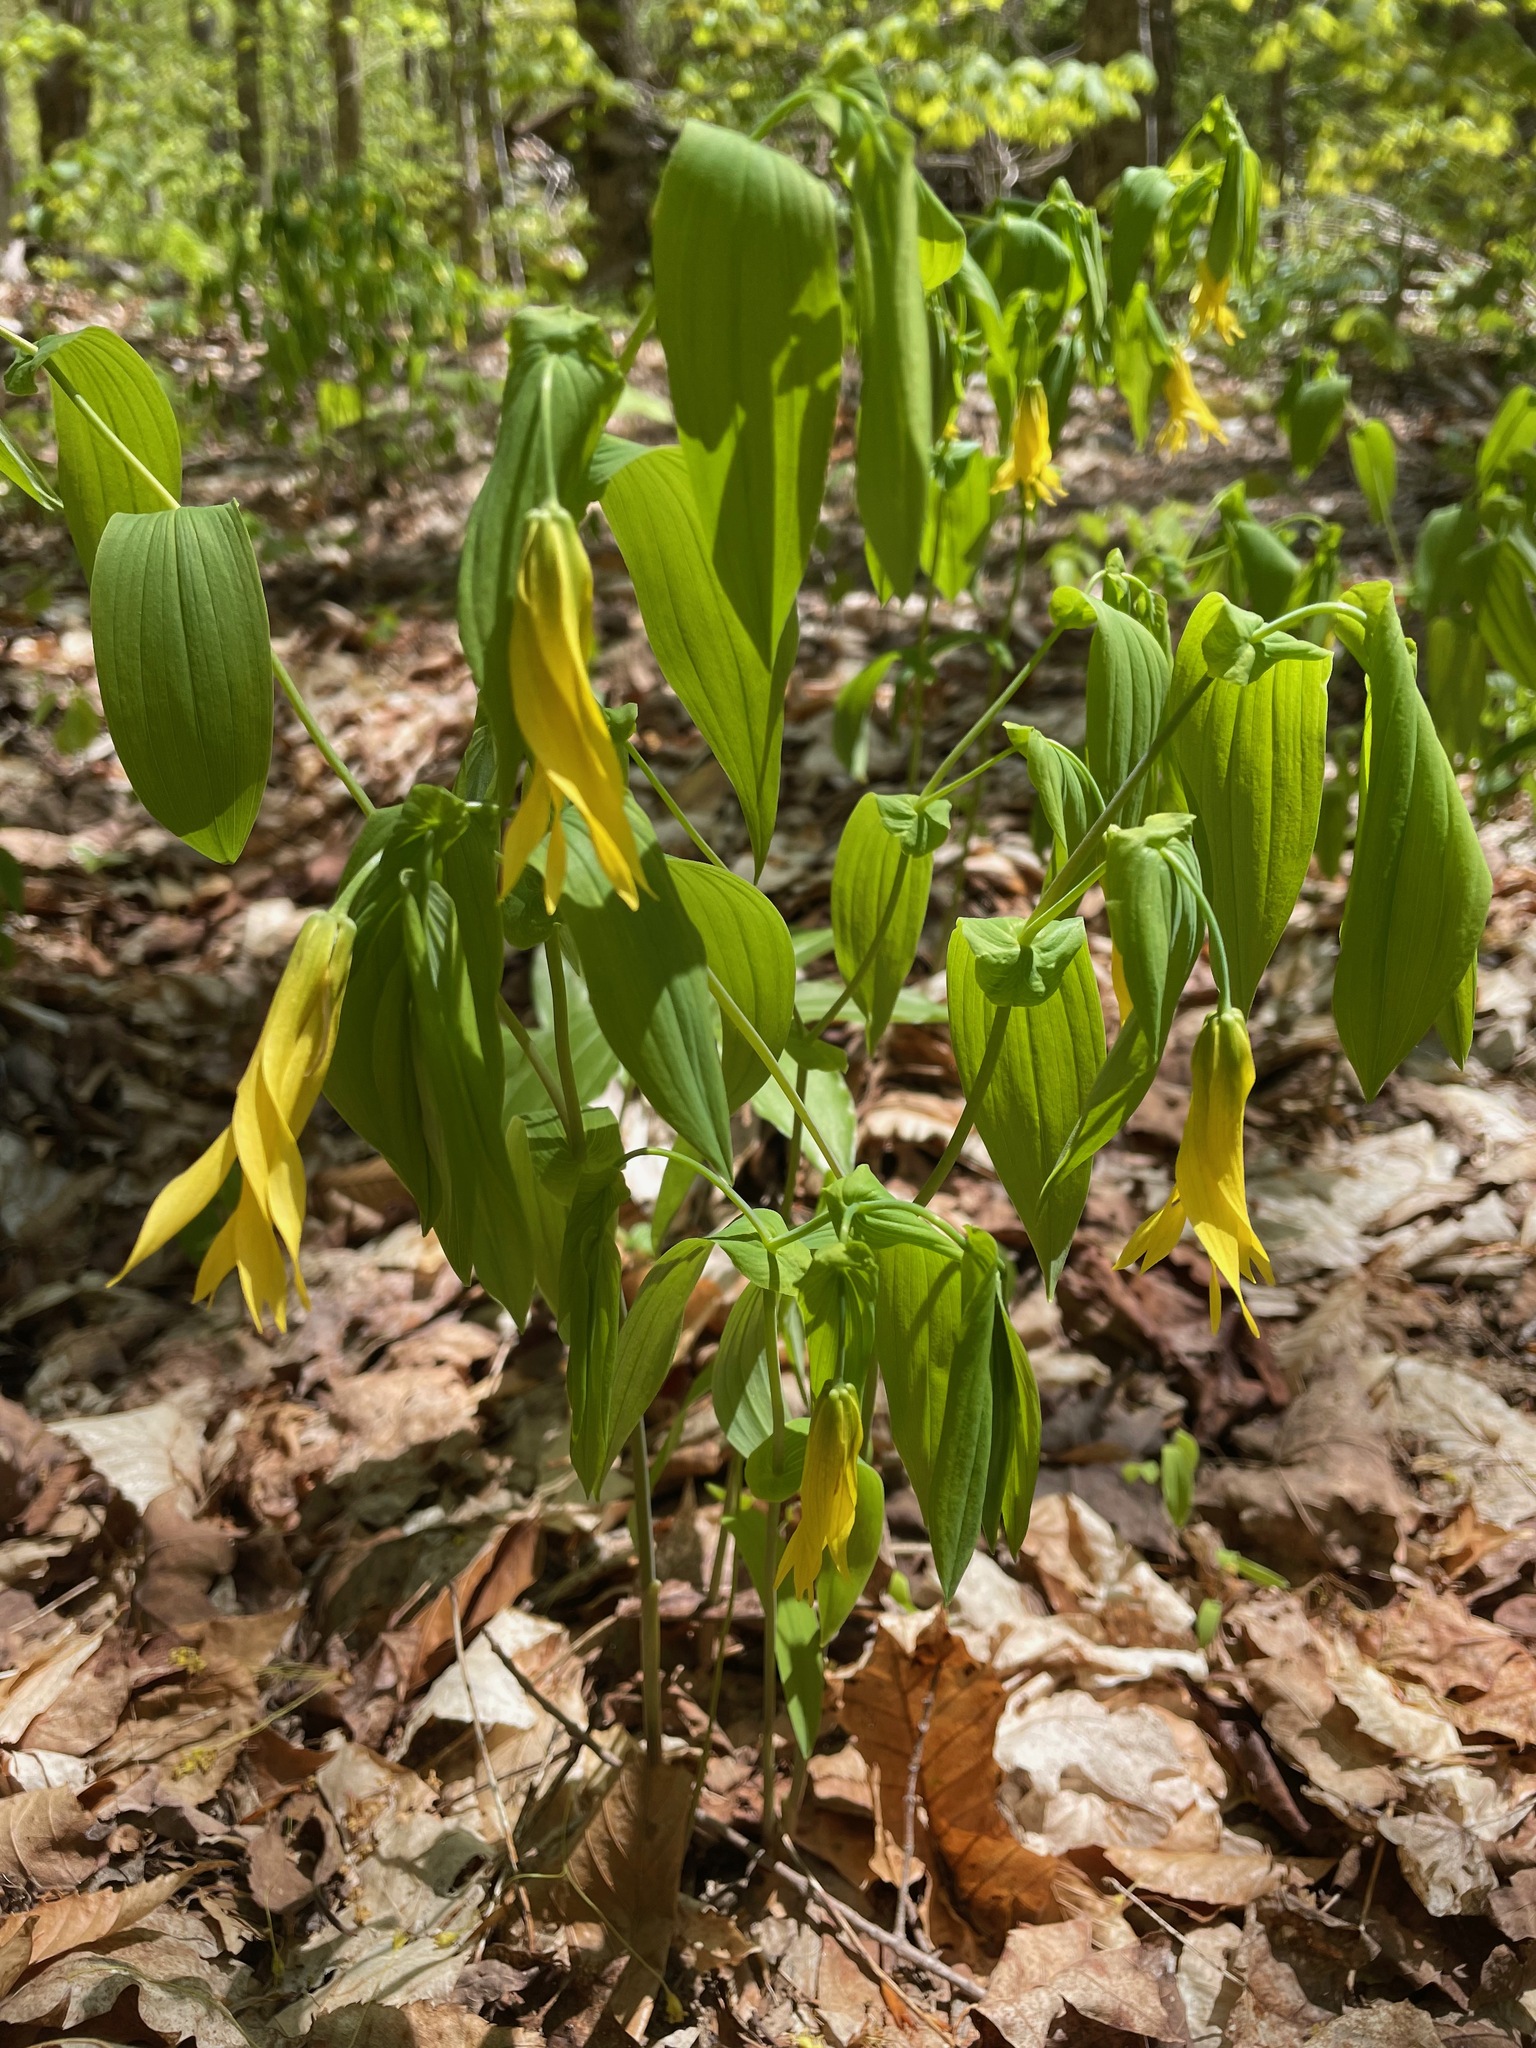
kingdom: Plantae
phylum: Tracheophyta
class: Liliopsida
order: Liliales
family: Colchicaceae
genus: Uvularia
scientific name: Uvularia grandiflora
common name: Bellwort
